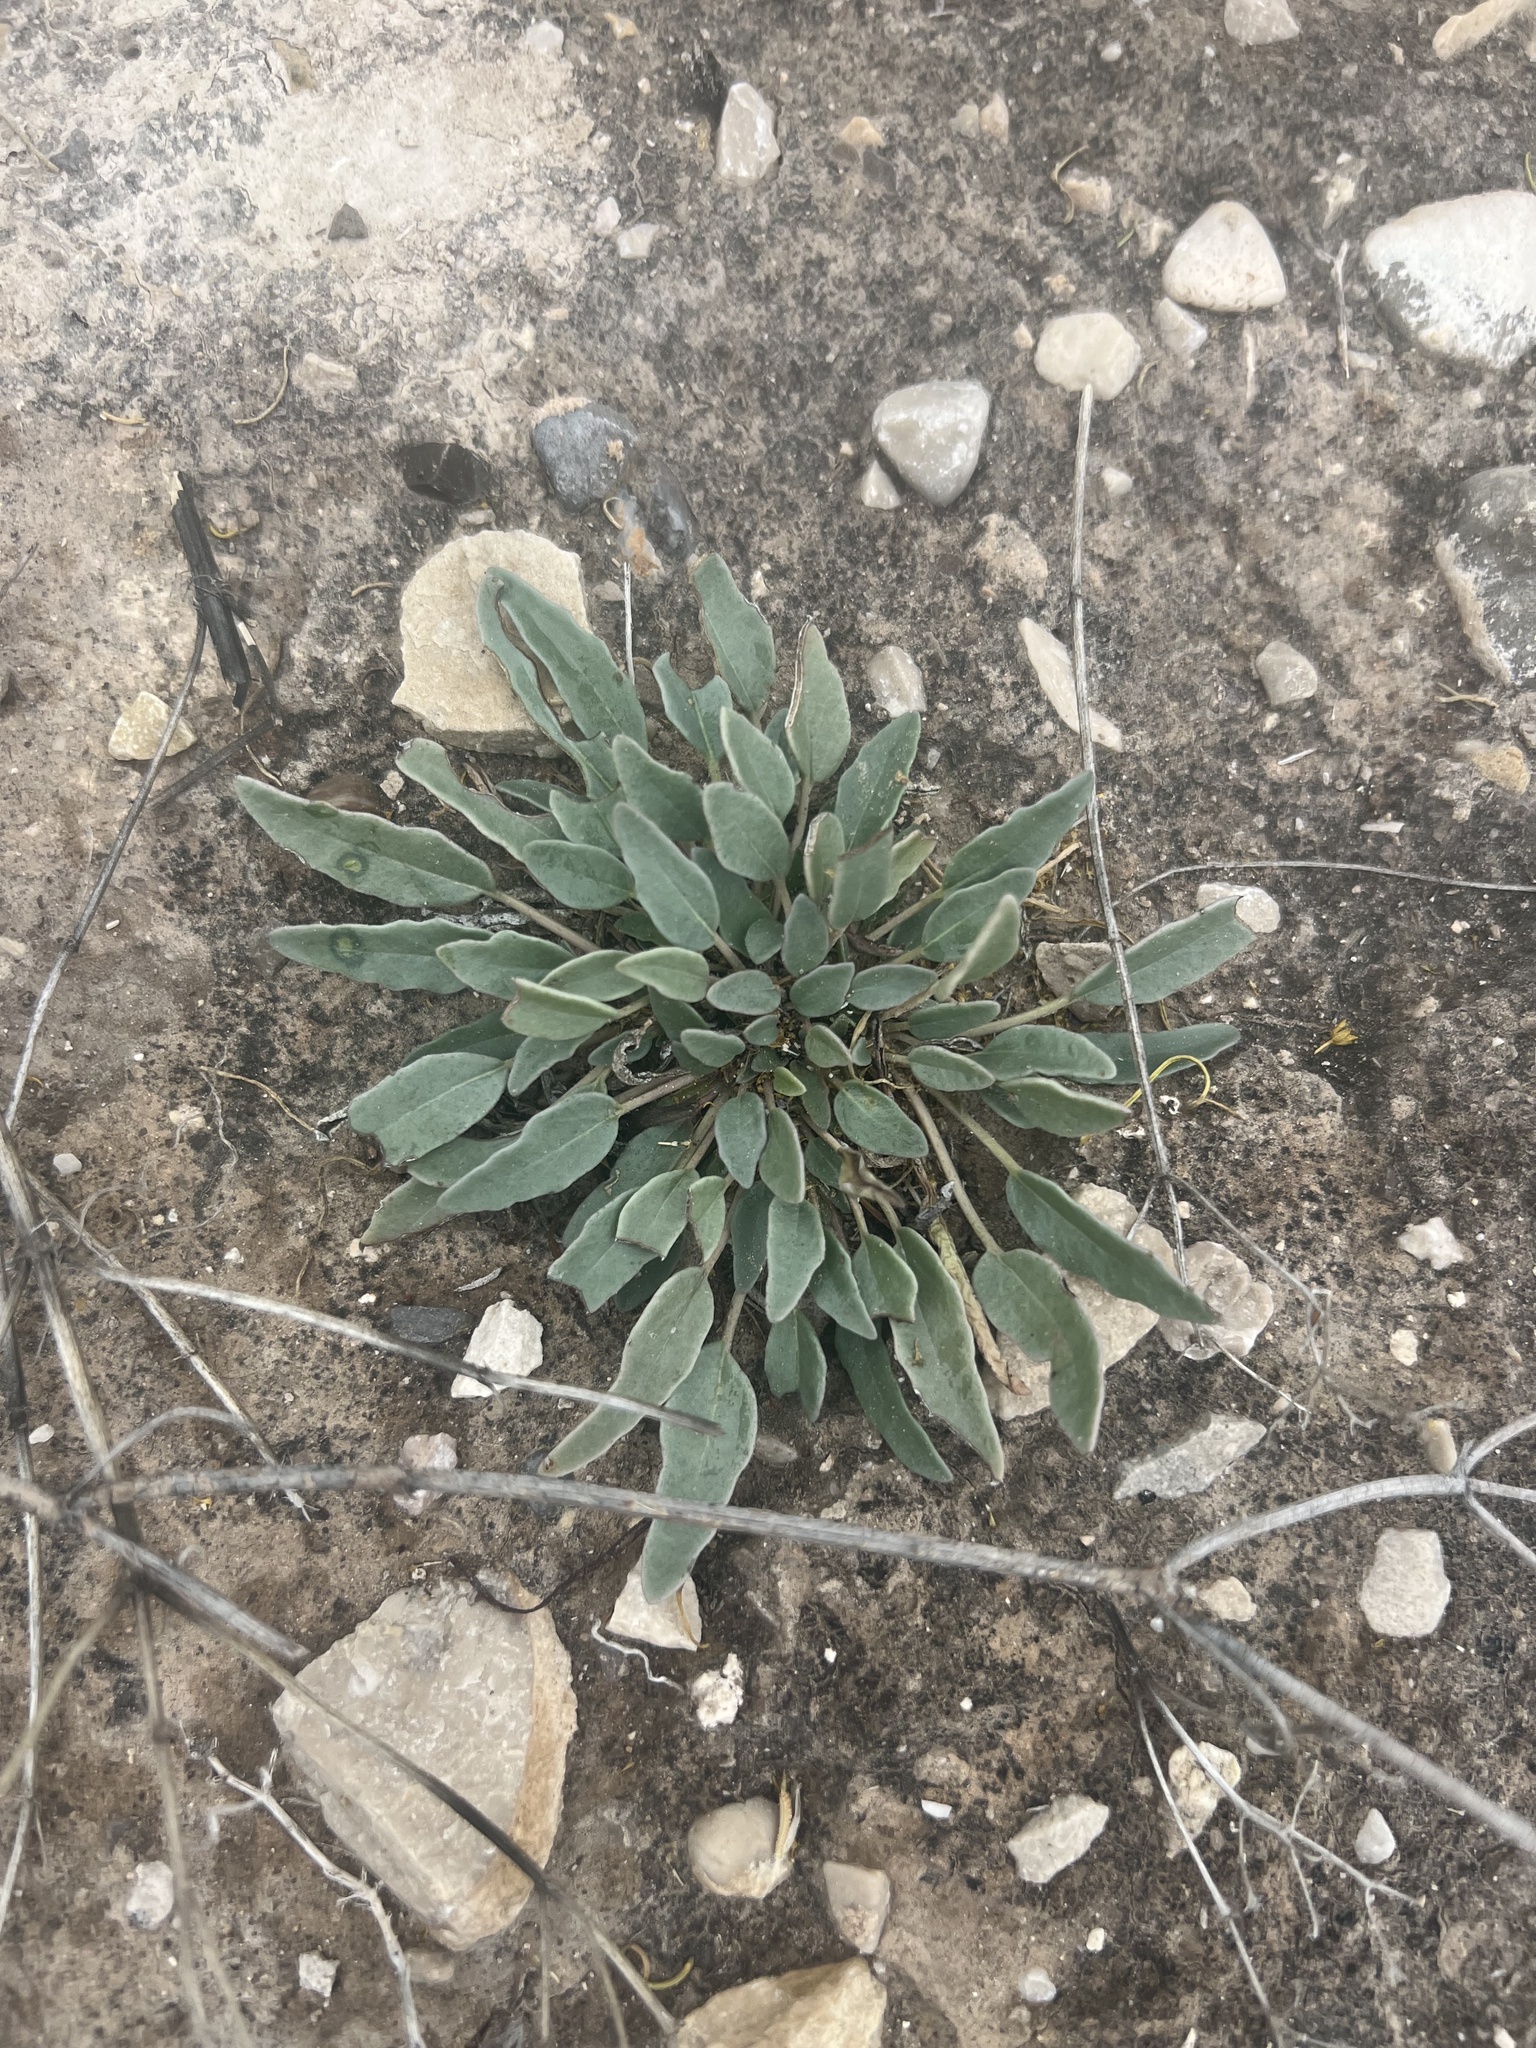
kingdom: Plantae
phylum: Tracheophyta
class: Magnoliopsida
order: Caryophyllales
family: Nyctaginaceae
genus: Abronia
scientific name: Abronia carletonii
